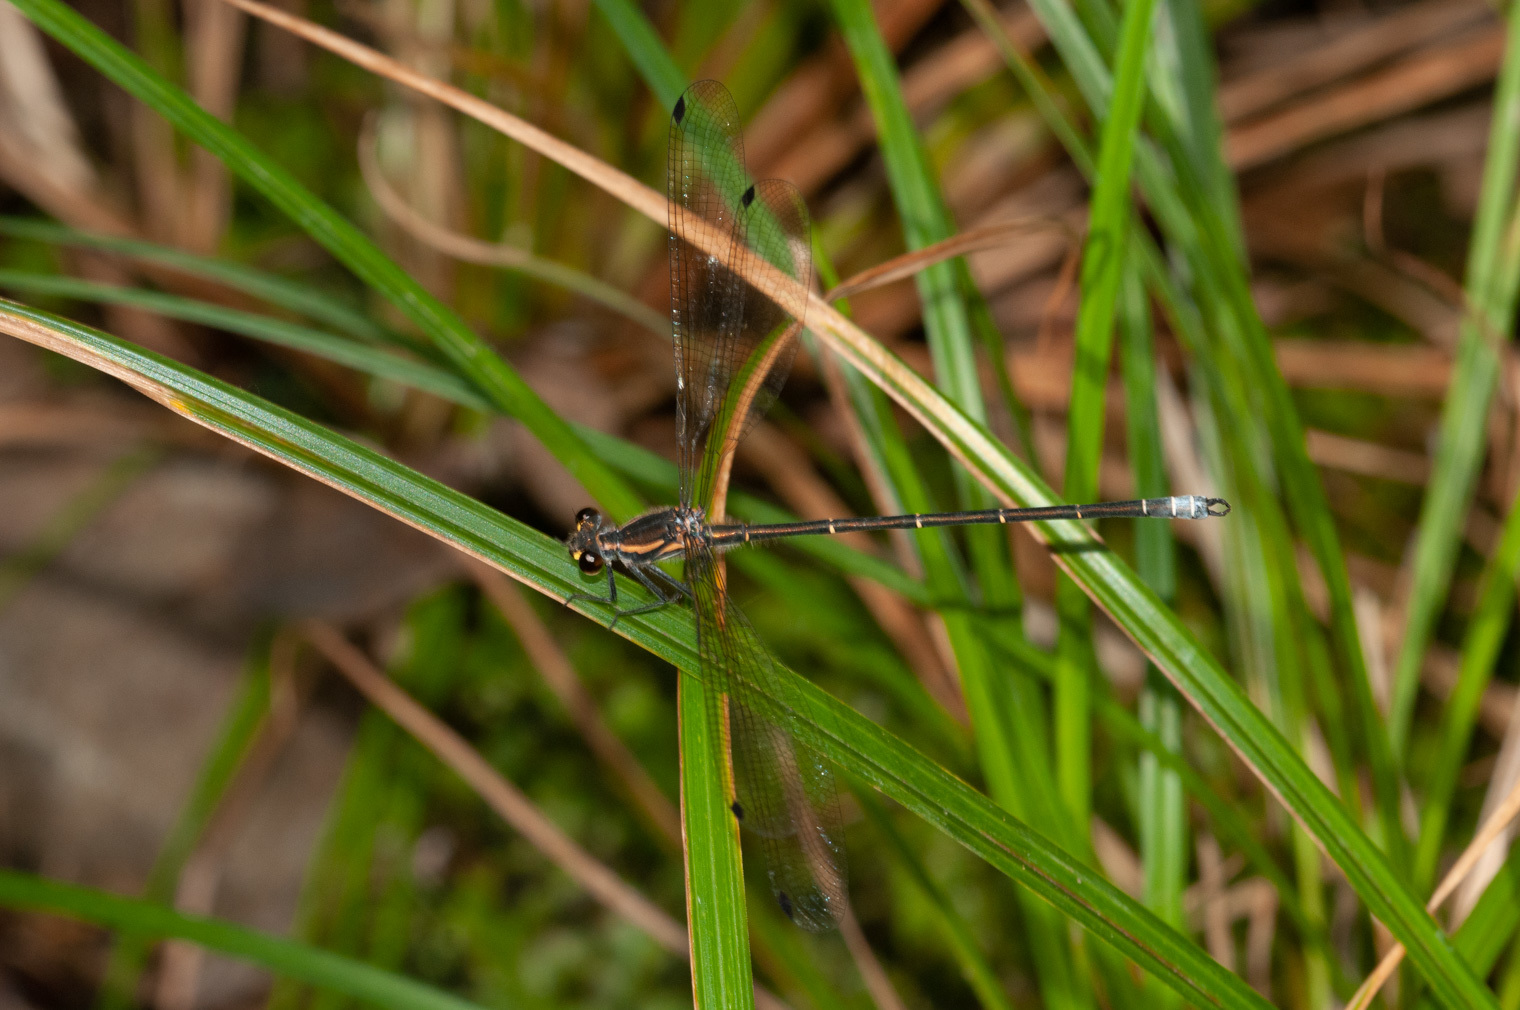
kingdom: Animalia
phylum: Arthropoda
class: Insecta
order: Odonata
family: Argiolestidae
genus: Austroargiolestes
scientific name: Austroargiolestes icteromelas
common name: Common flatwing
